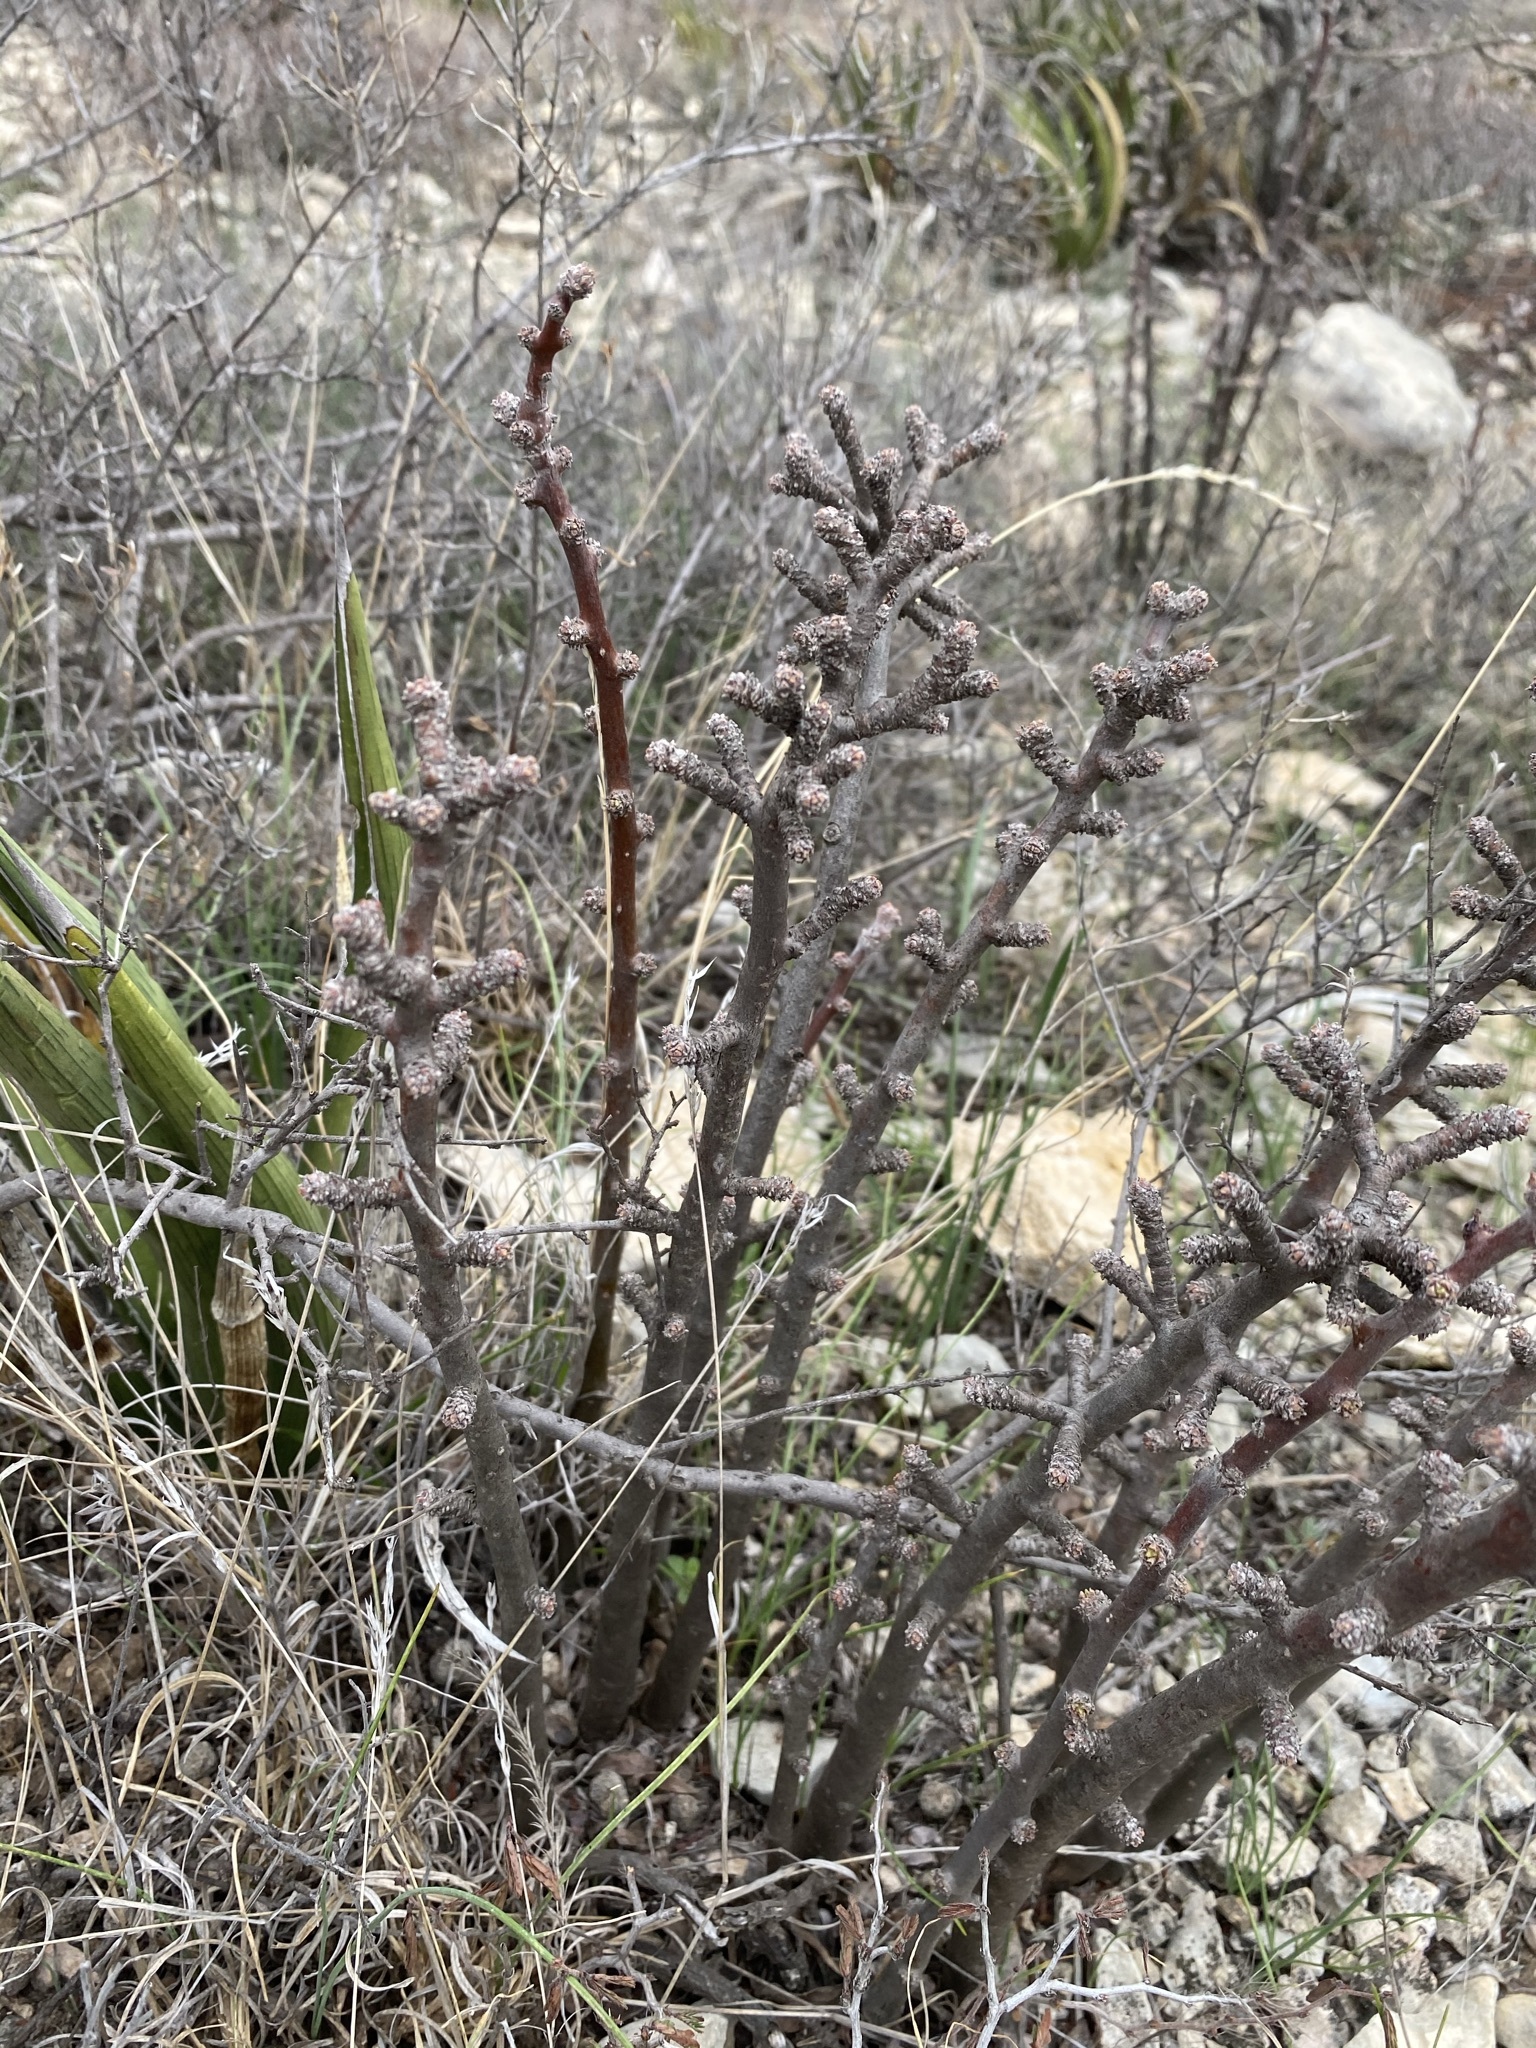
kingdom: Plantae
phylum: Tracheophyta
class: Magnoliopsida
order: Malpighiales
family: Euphorbiaceae
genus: Jatropha
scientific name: Jatropha dioica
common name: Leatherstem
